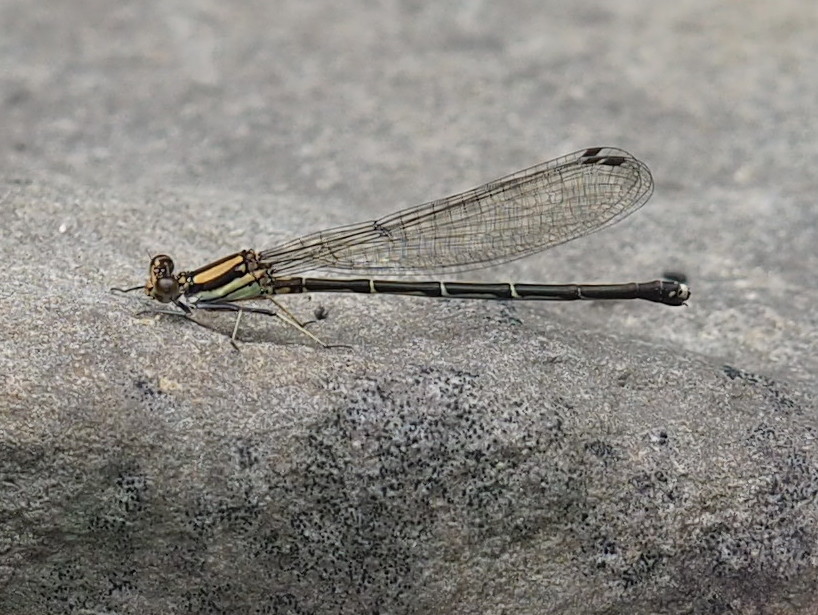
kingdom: Animalia
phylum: Arthropoda
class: Insecta
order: Odonata
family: Coenagrionidae
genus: Argia
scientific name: Argia tibialis
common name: Blue-tipped dancer
